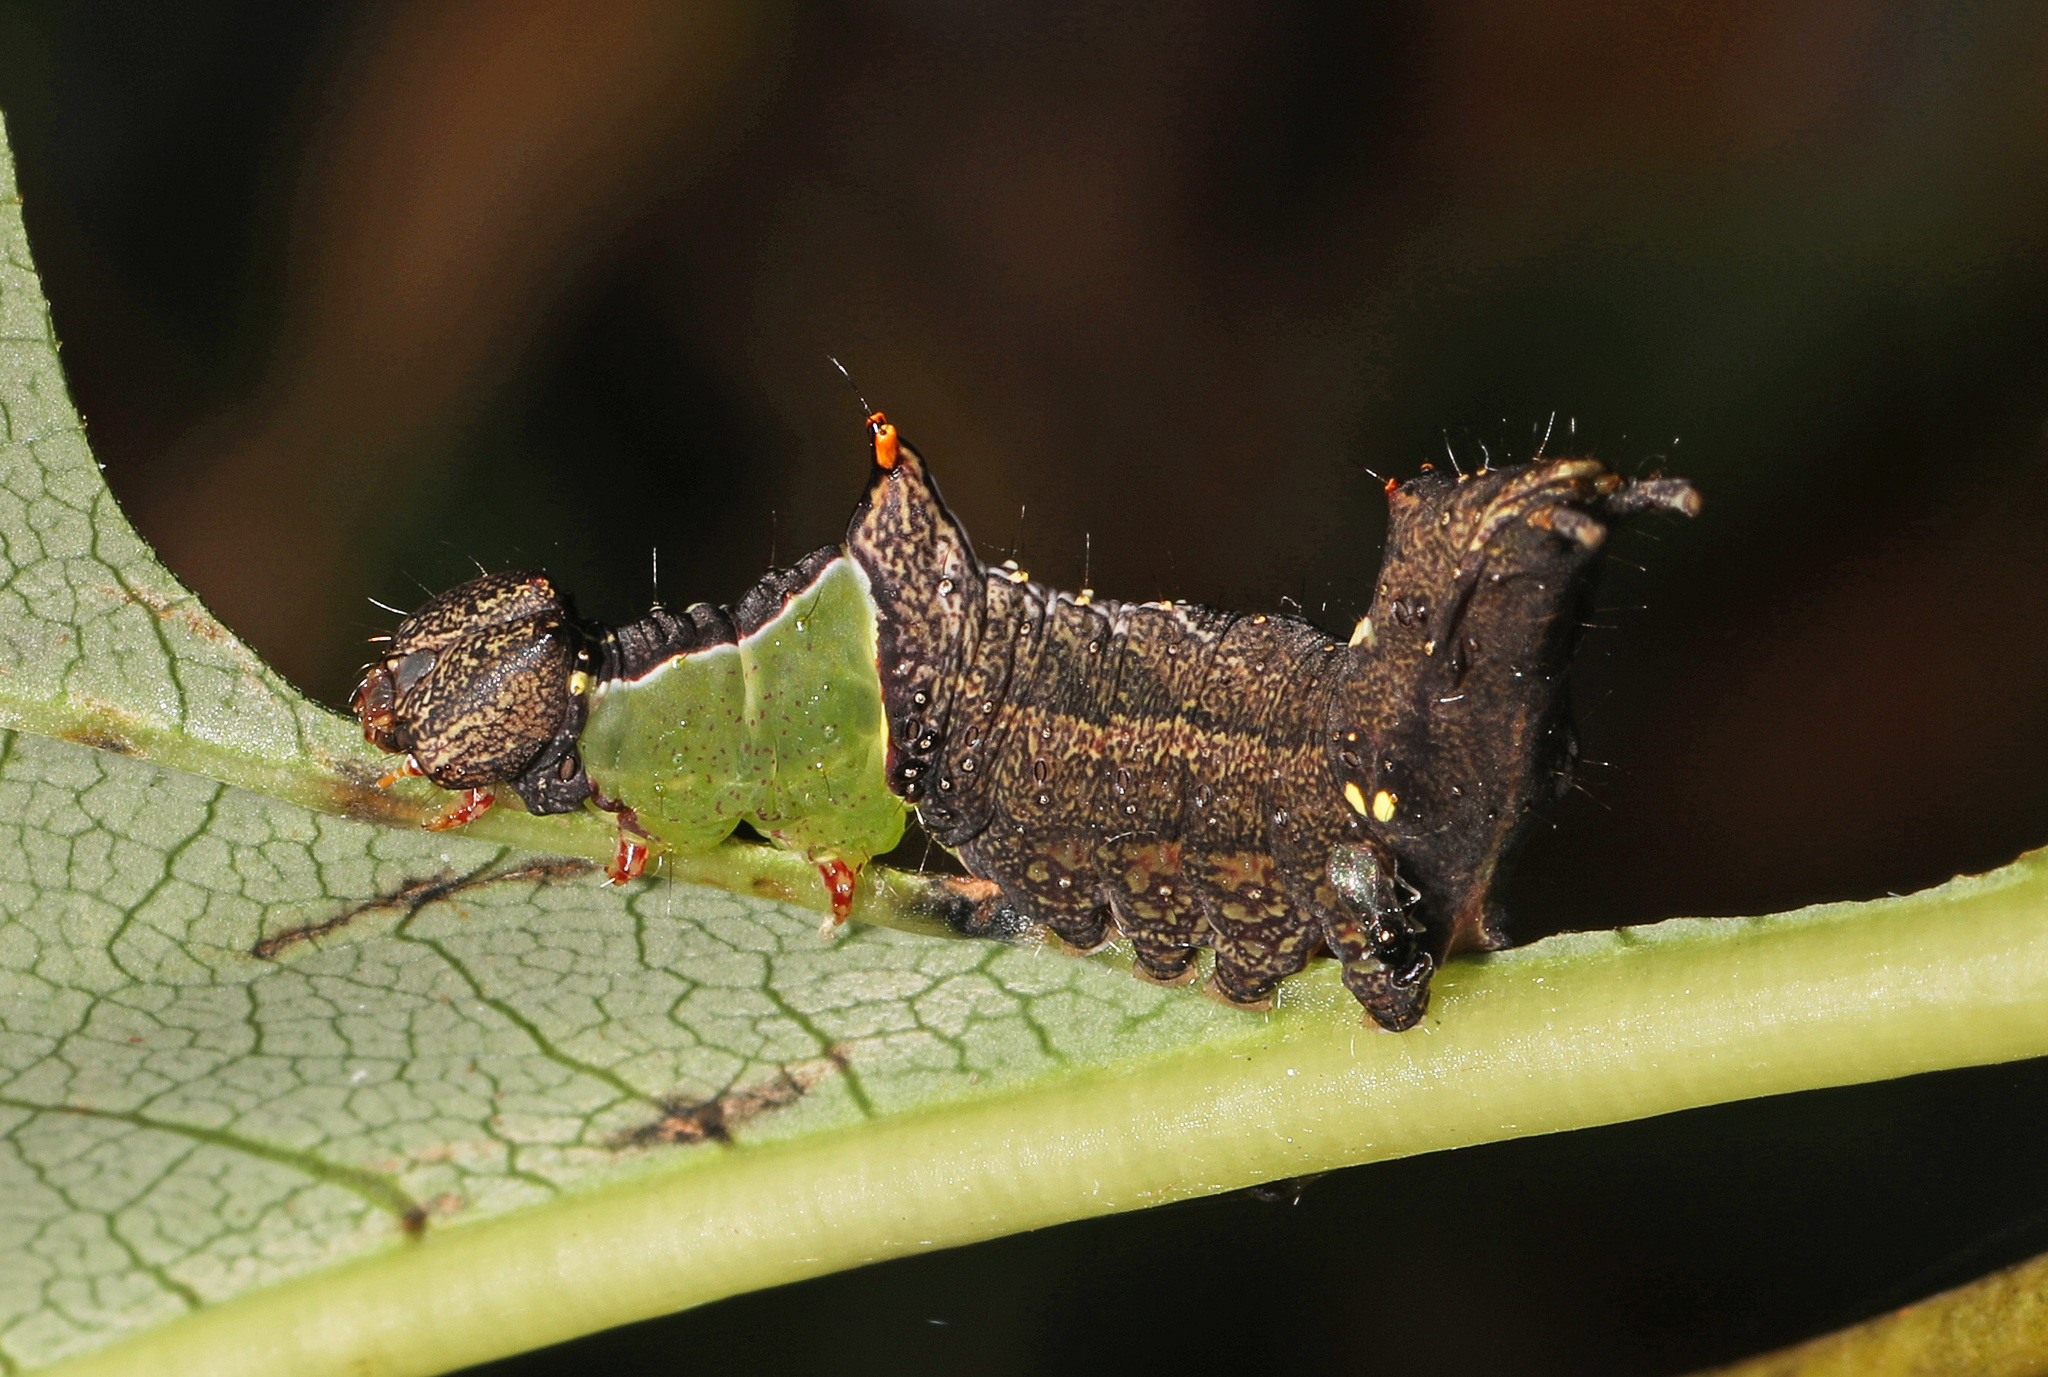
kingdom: Animalia
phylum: Arthropoda
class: Insecta
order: Lepidoptera
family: Notodontidae
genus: Schizura
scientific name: Schizura
